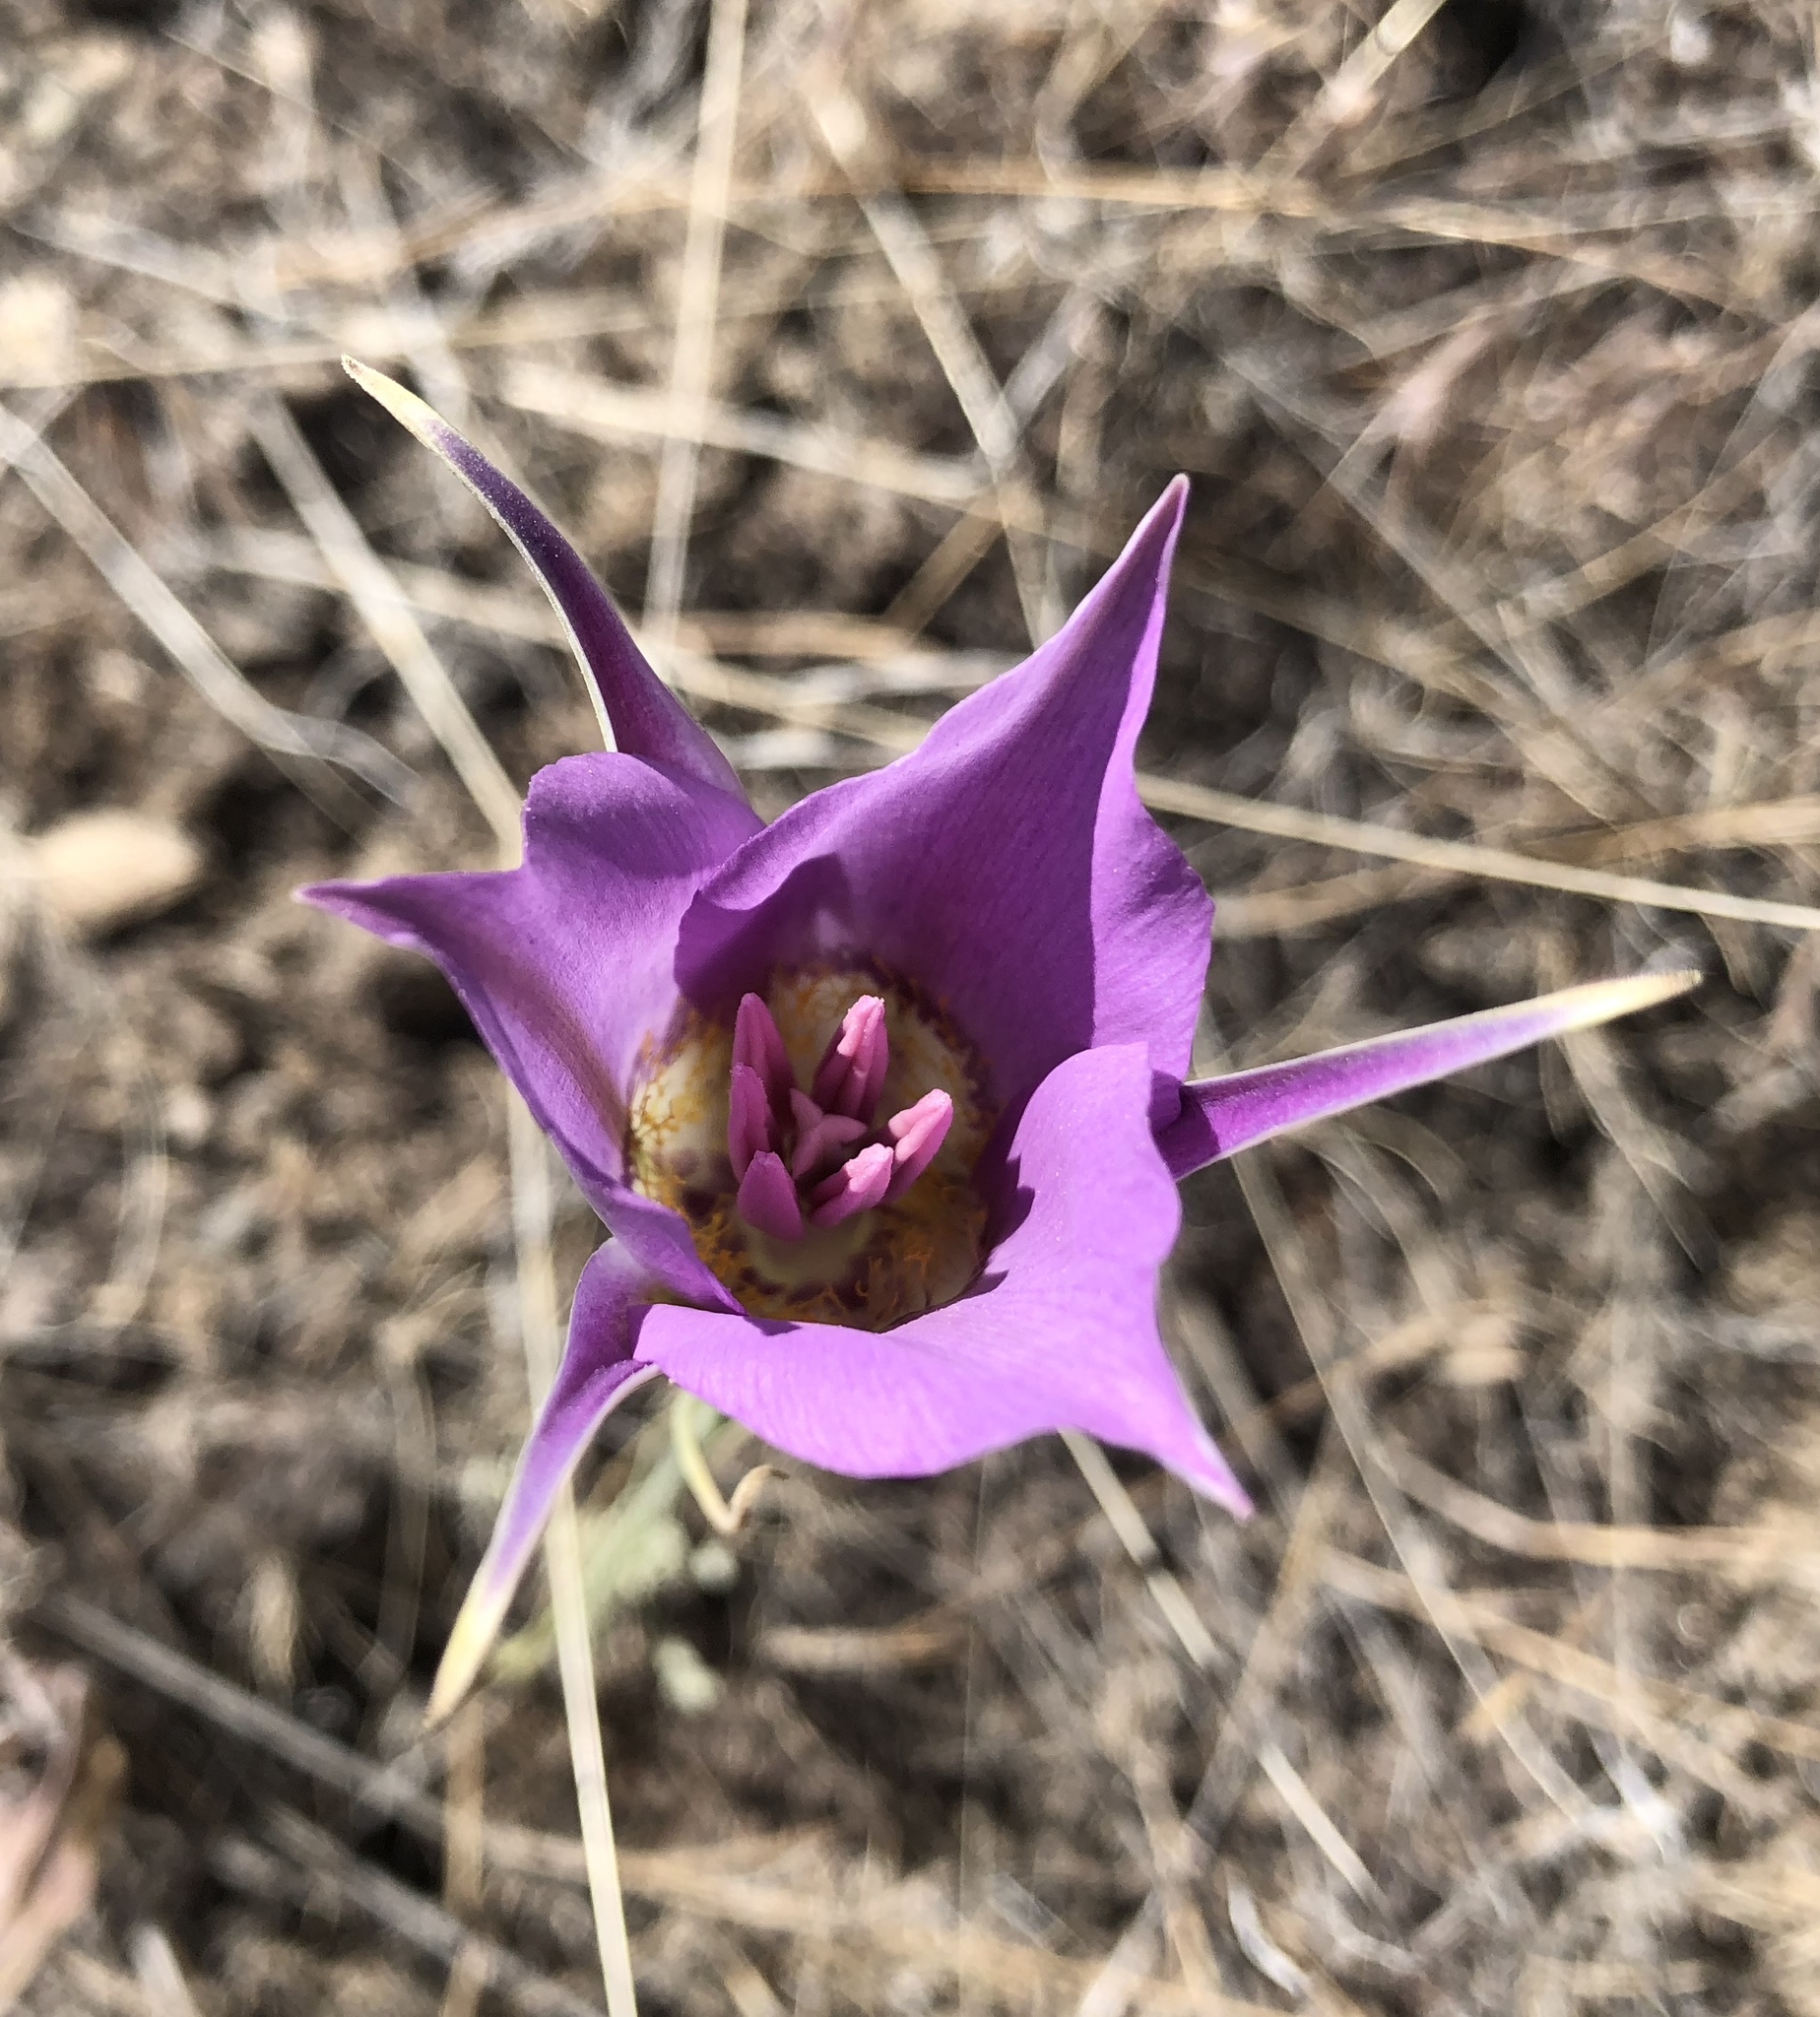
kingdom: Plantae
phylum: Tracheophyta
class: Liliopsida
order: Liliales
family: Liliaceae
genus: Calochortus
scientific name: Calochortus macrocarpus
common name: Green-band mariposa lily
